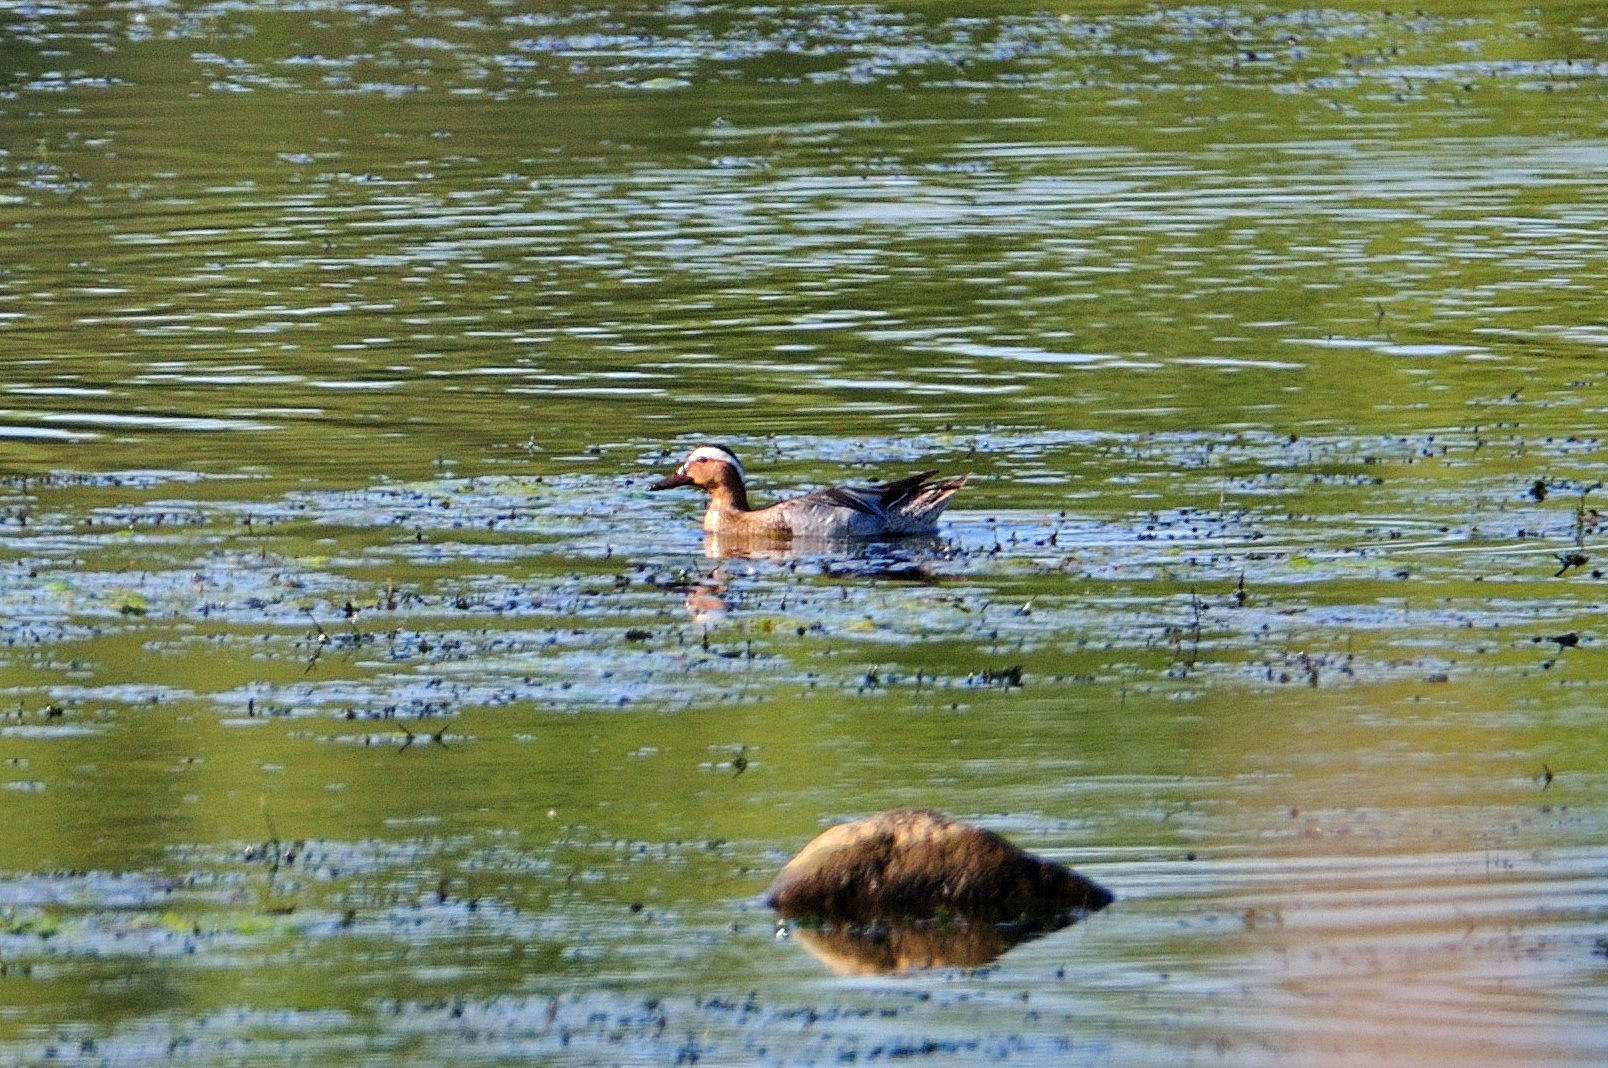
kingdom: Animalia
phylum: Chordata
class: Aves
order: Anseriformes
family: Anatidae
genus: Spatula
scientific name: Spatula querquedula
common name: Garganey
